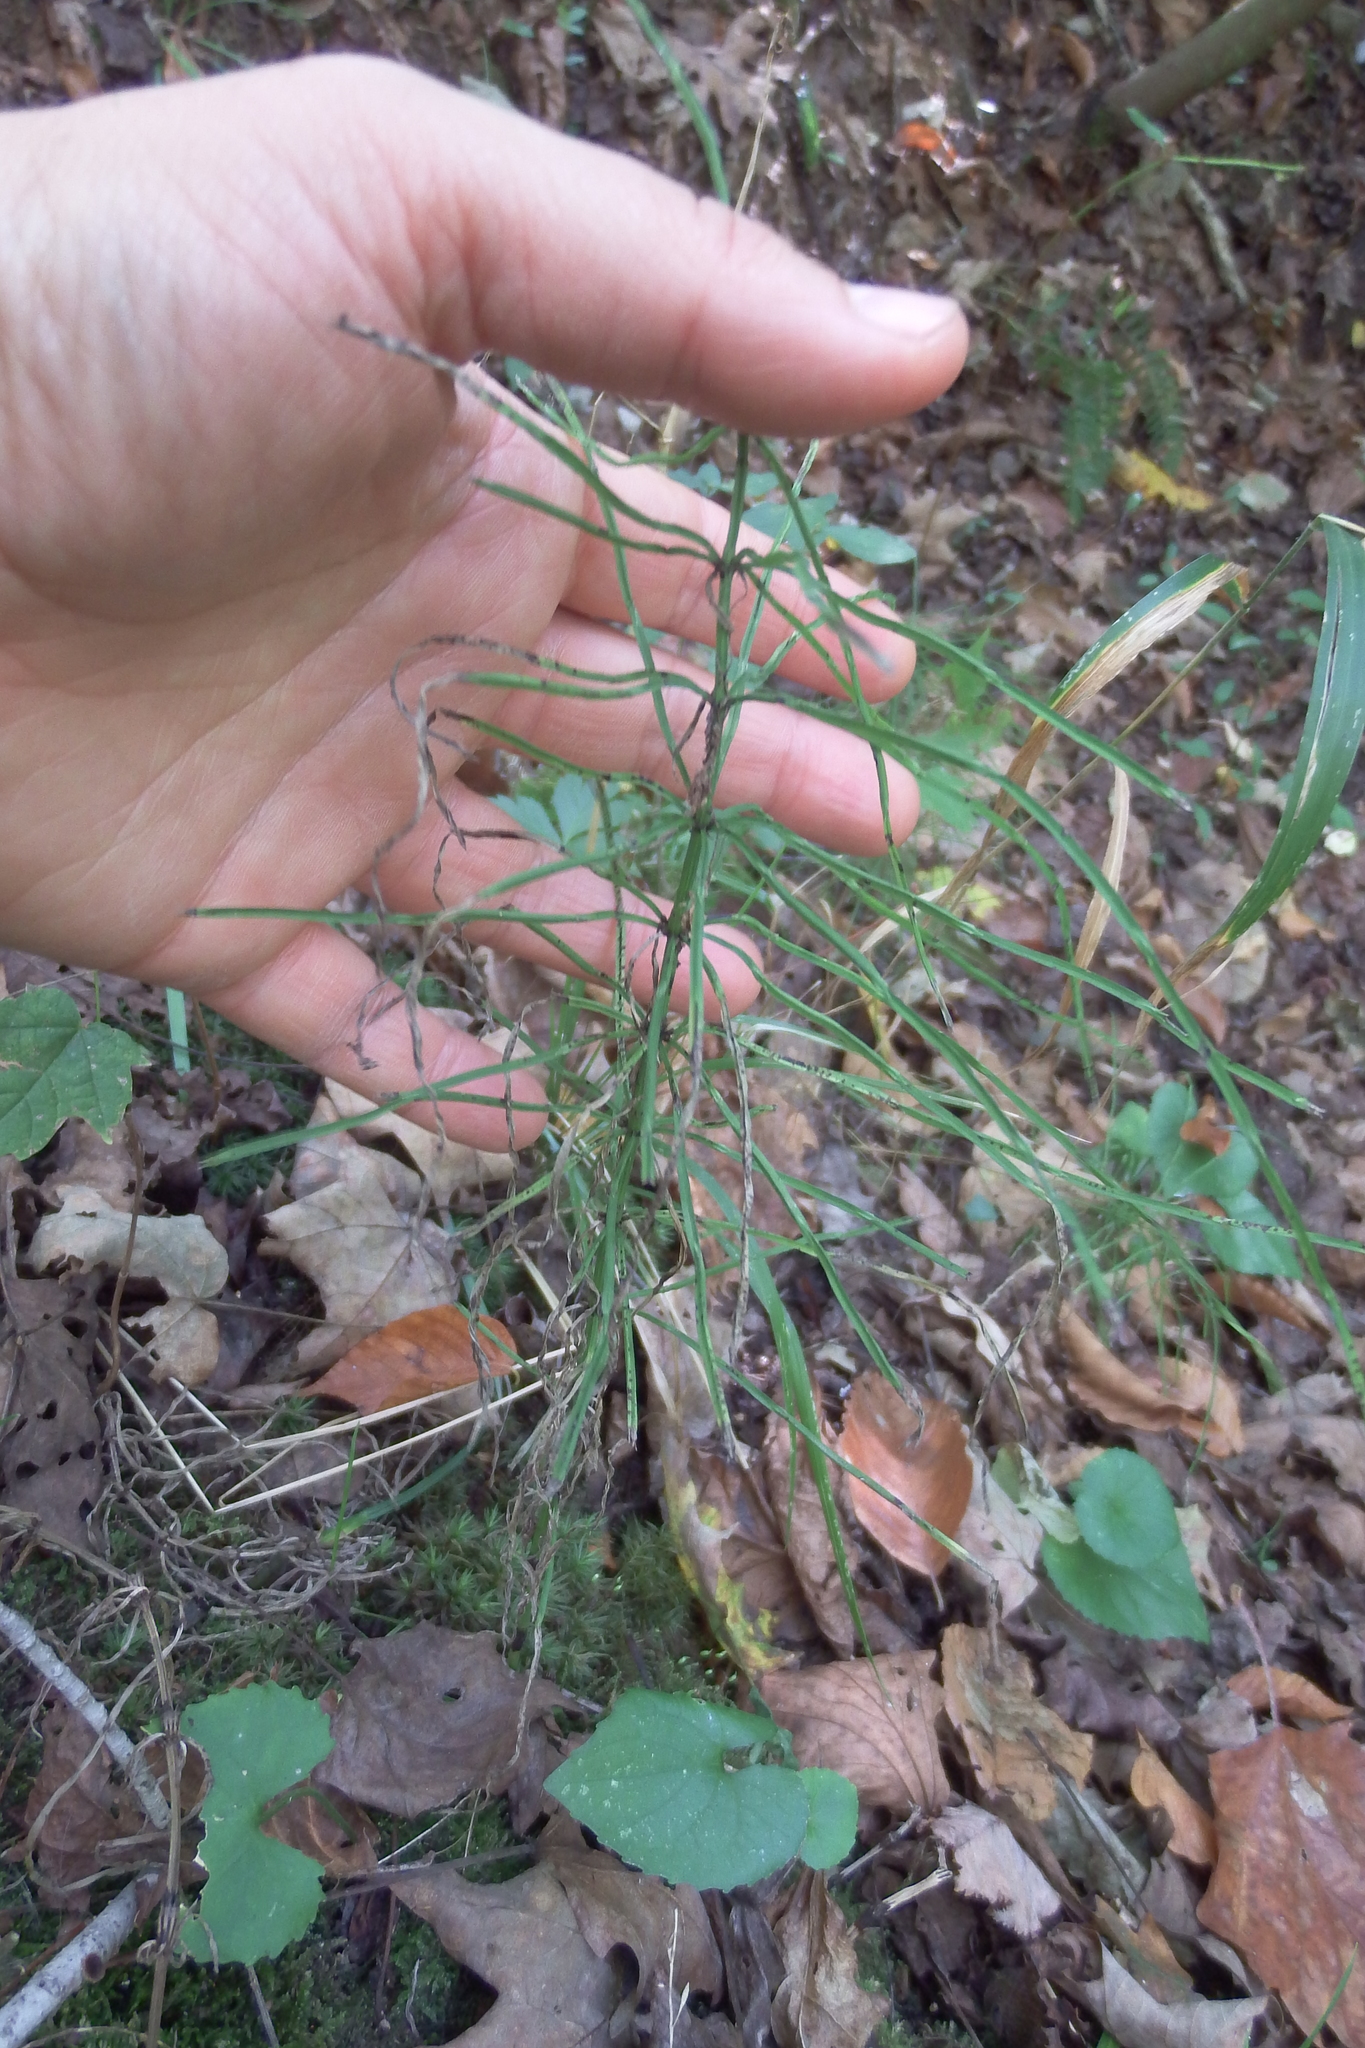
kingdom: Plantae
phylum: Tracheophyta
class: Polypodiopsida
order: Equisetales
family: Equisetaceae
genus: Equisetum
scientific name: Equisetum arvense
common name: Field horsetail
